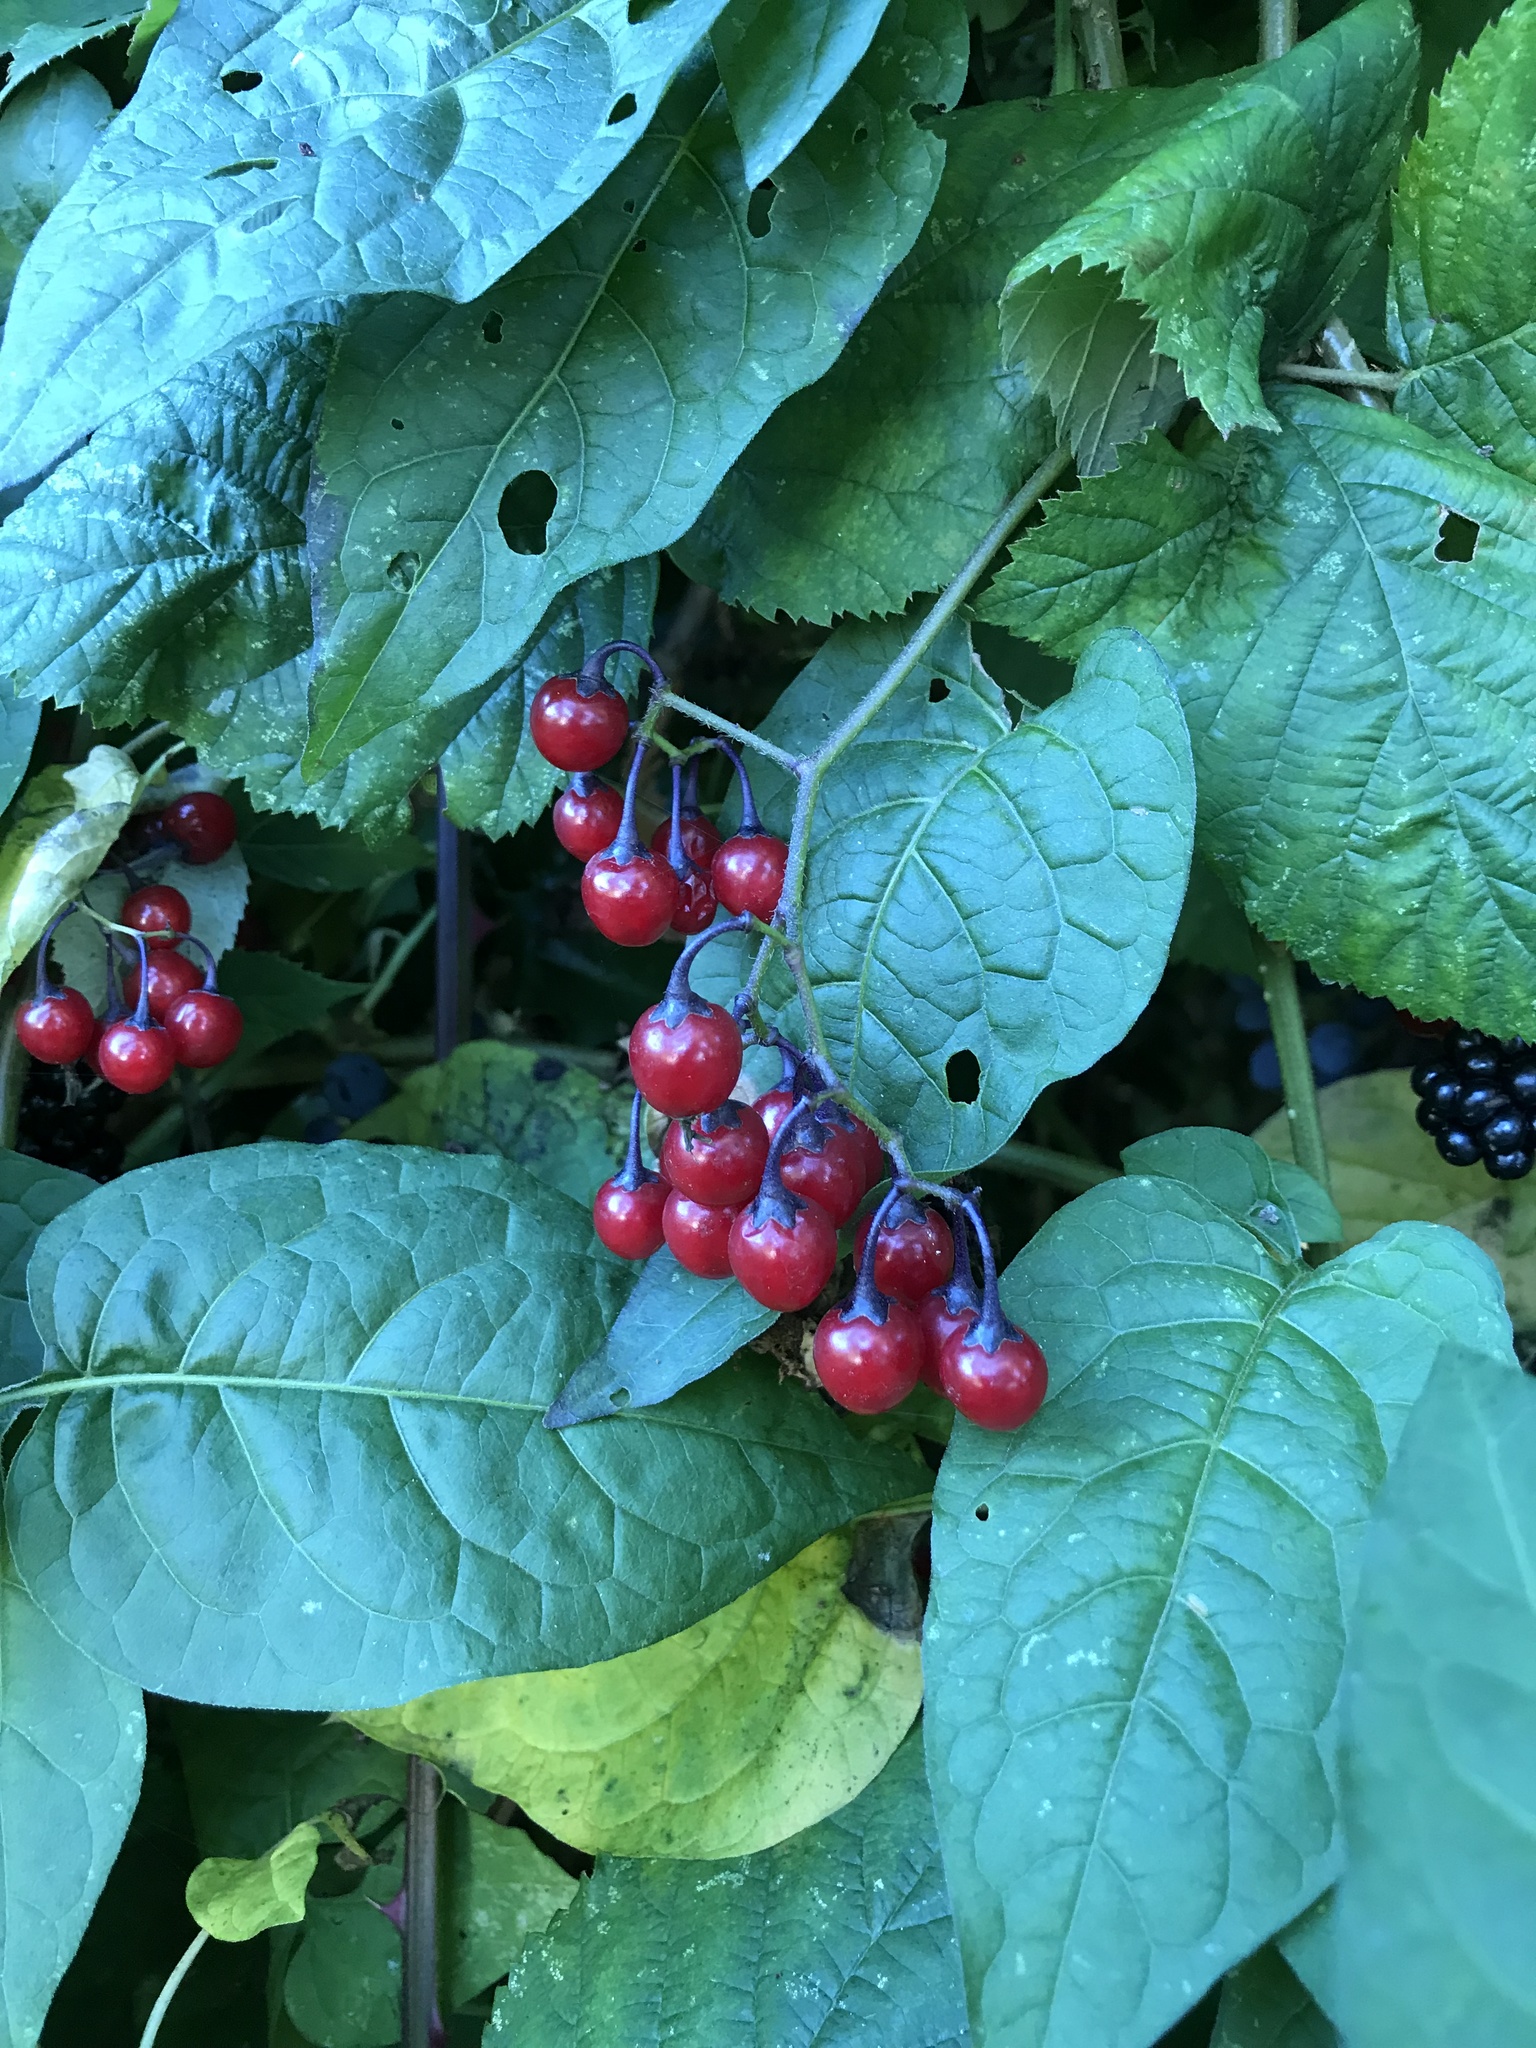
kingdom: Plantae
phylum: Tracheophyta
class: Magnoliopsida
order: Solanales
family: Solanaceae
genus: Solanum
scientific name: Solanum dulcamara
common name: Climbing nightshade
